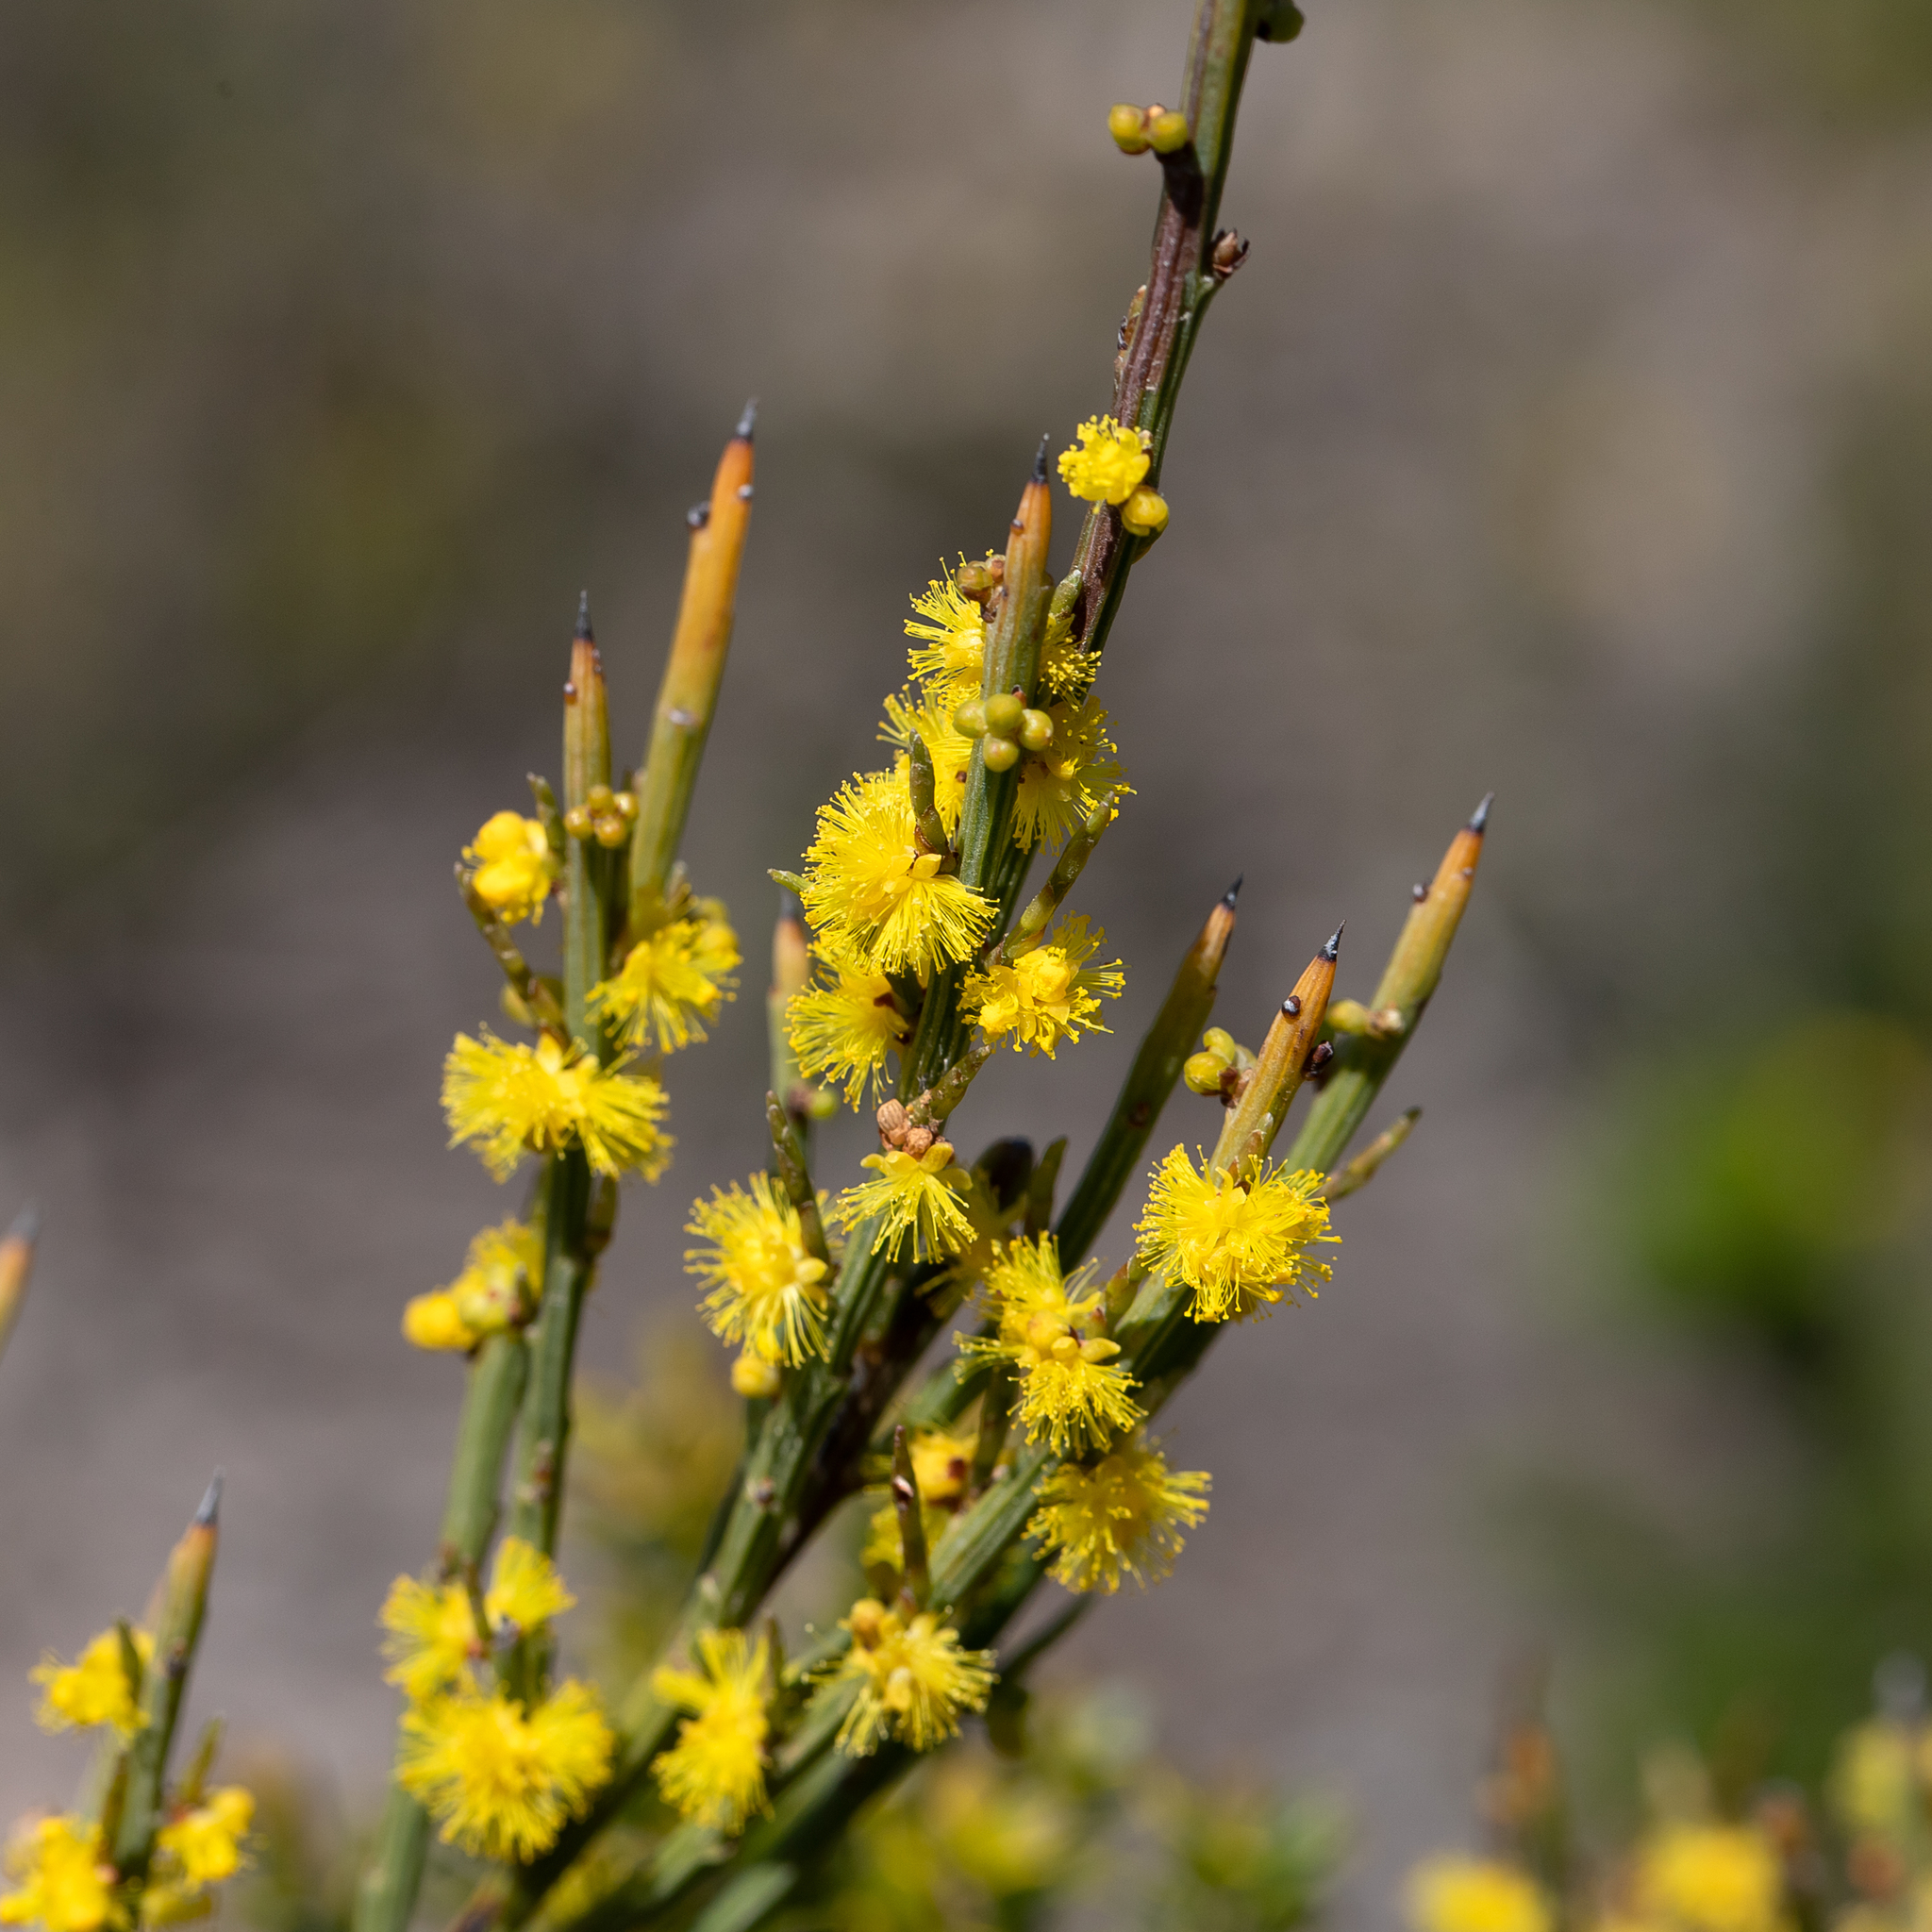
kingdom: Plantae
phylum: Tracheophyta
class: Magnoliopsida
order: Fabales
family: Fabaceae
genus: Acacia
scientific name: Acacia spinescens
